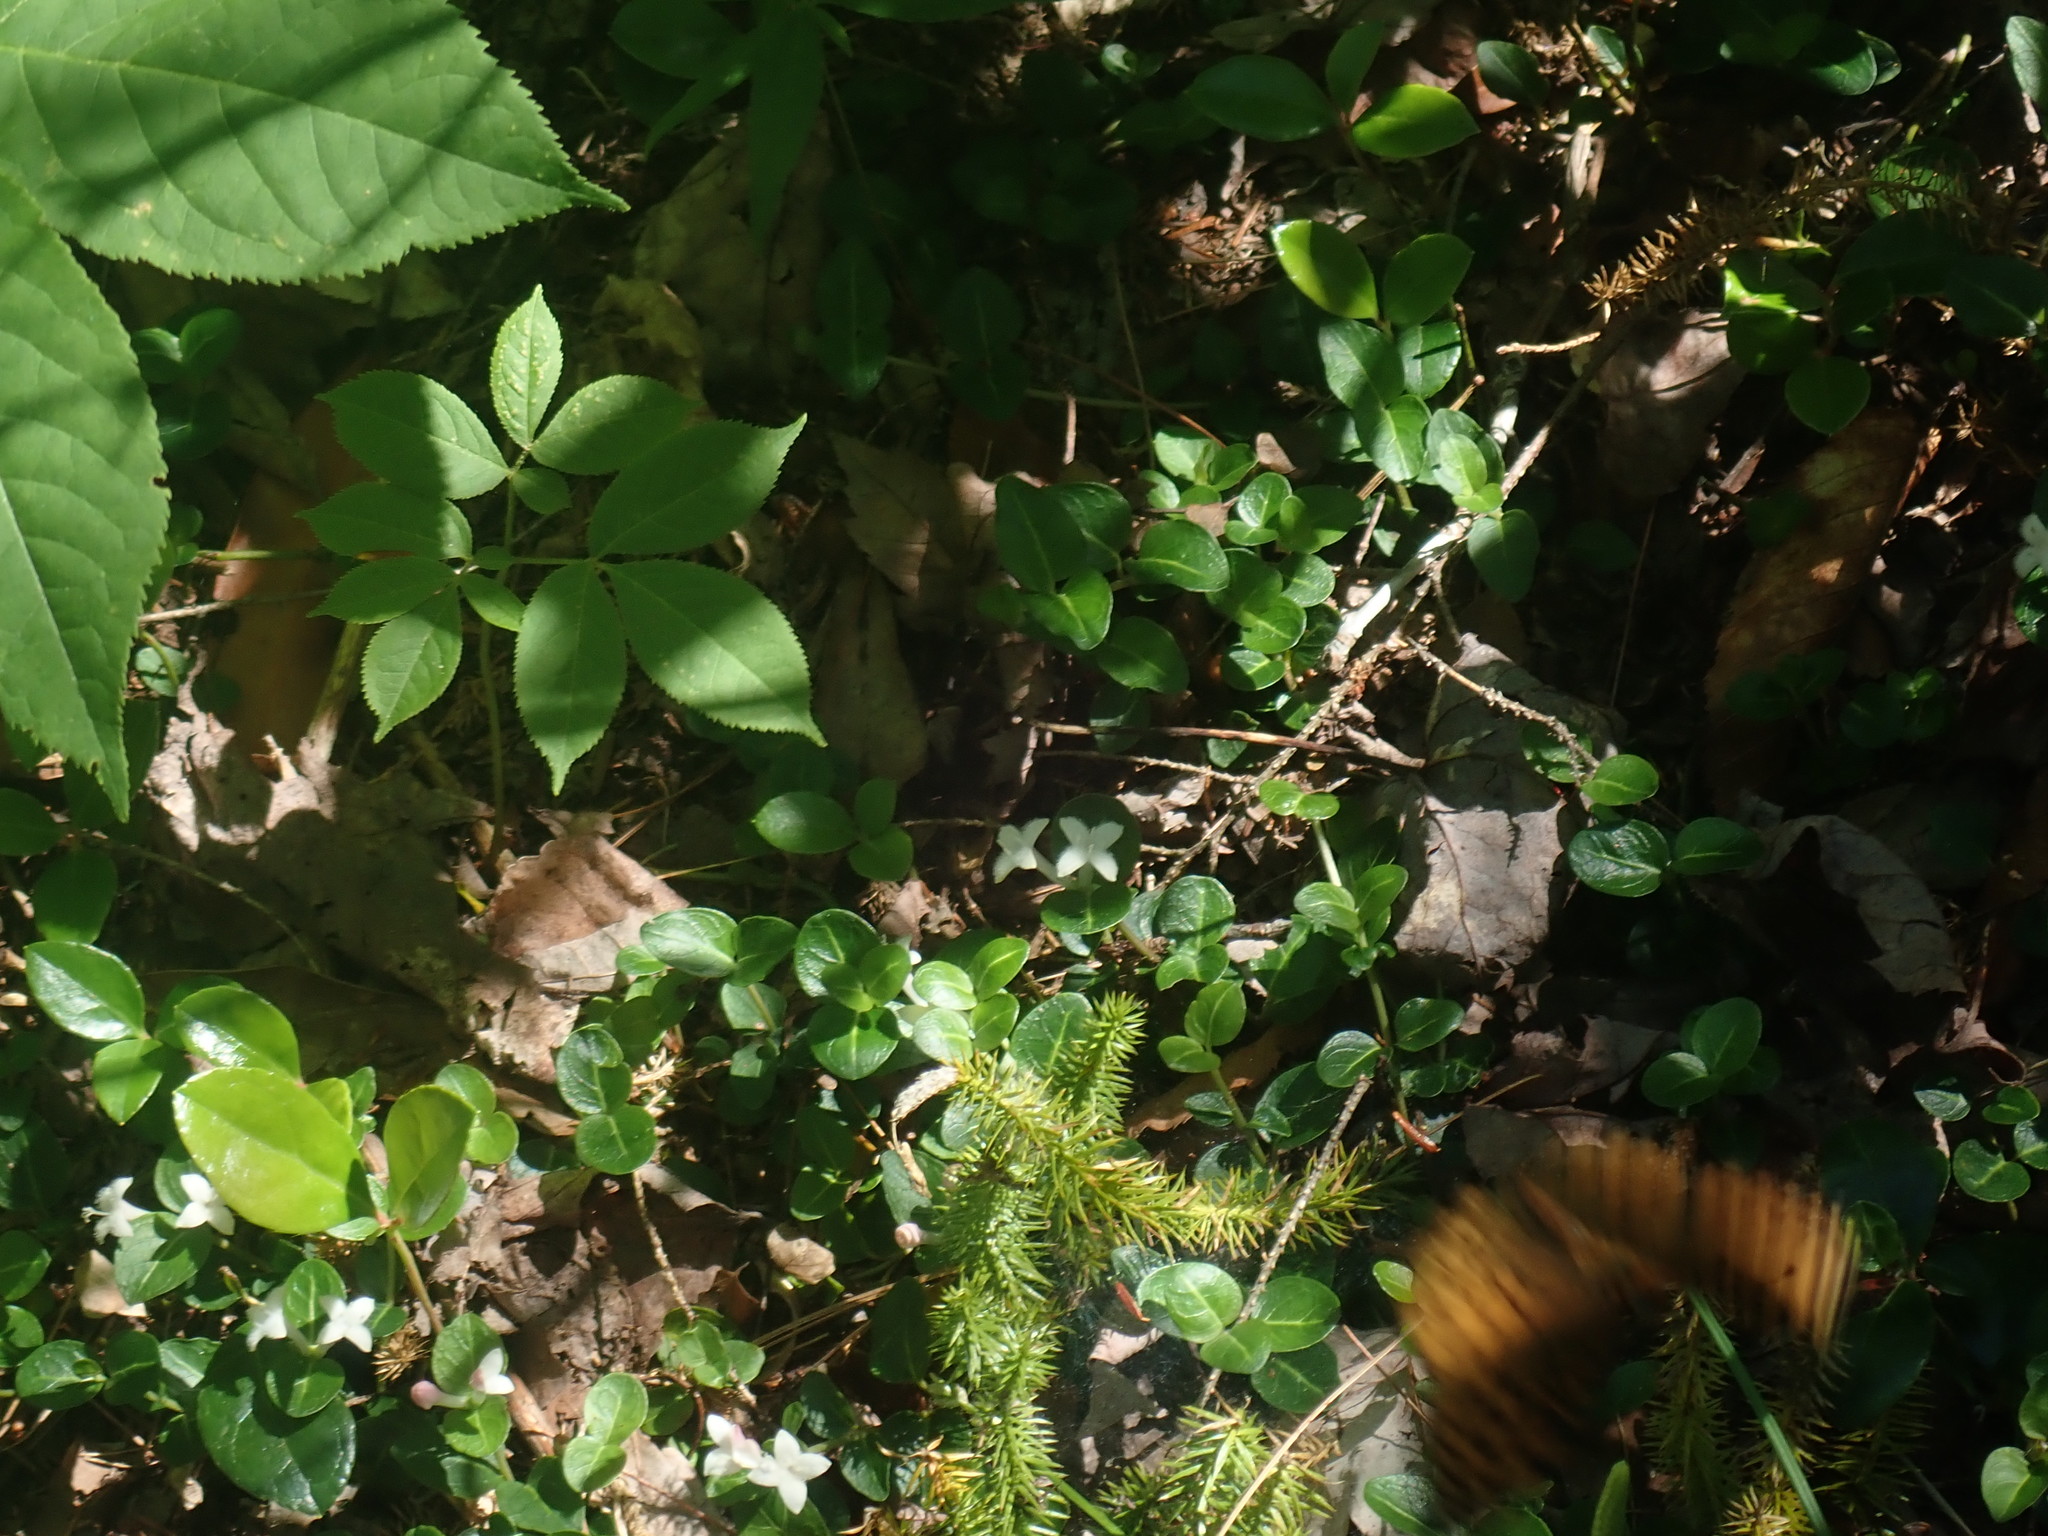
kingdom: Plantae
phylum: Tracheophyta
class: Magnoliopsida
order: Gentianales
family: Rubiaceae
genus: Mitchella
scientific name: Mitchella repens
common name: Partridge-berry
